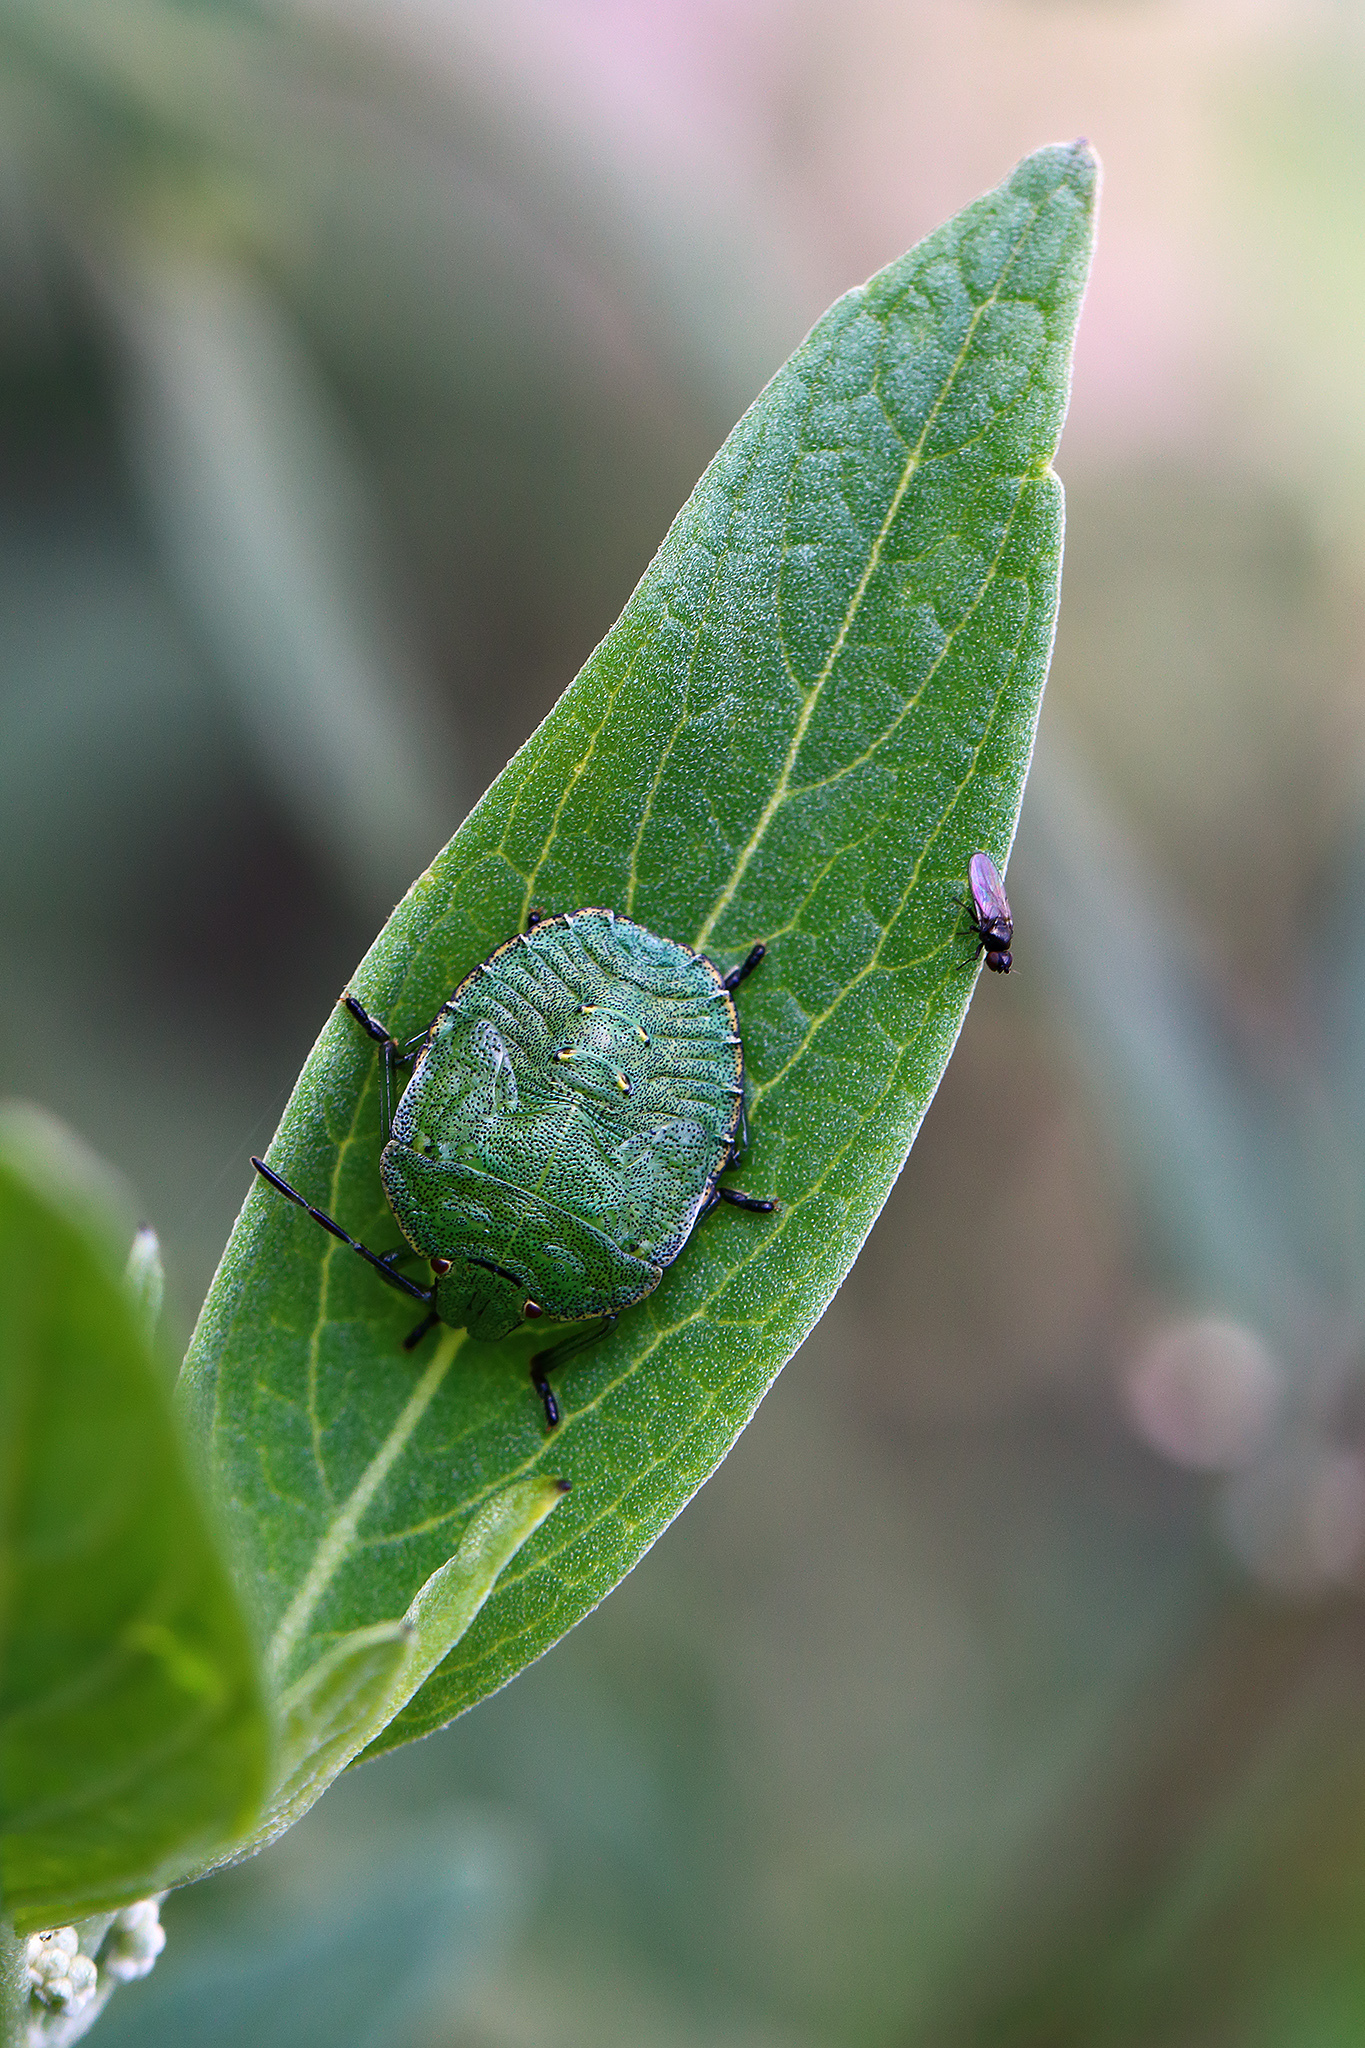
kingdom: Animalia
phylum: Arthropoda
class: Insecta
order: Hemiptera
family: Pentatomidae
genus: Palomena
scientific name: Palomena prasina
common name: Green shieldbug
